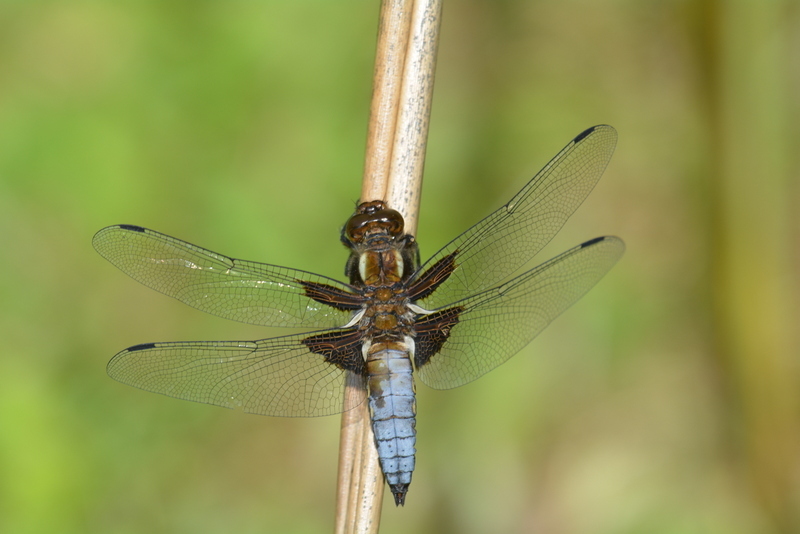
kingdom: Animalia
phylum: Arthropoda
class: Insecta
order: Odonata
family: Libellulidae
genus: Libellula
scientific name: Libellula depressa
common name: Broad-bodied chaser
